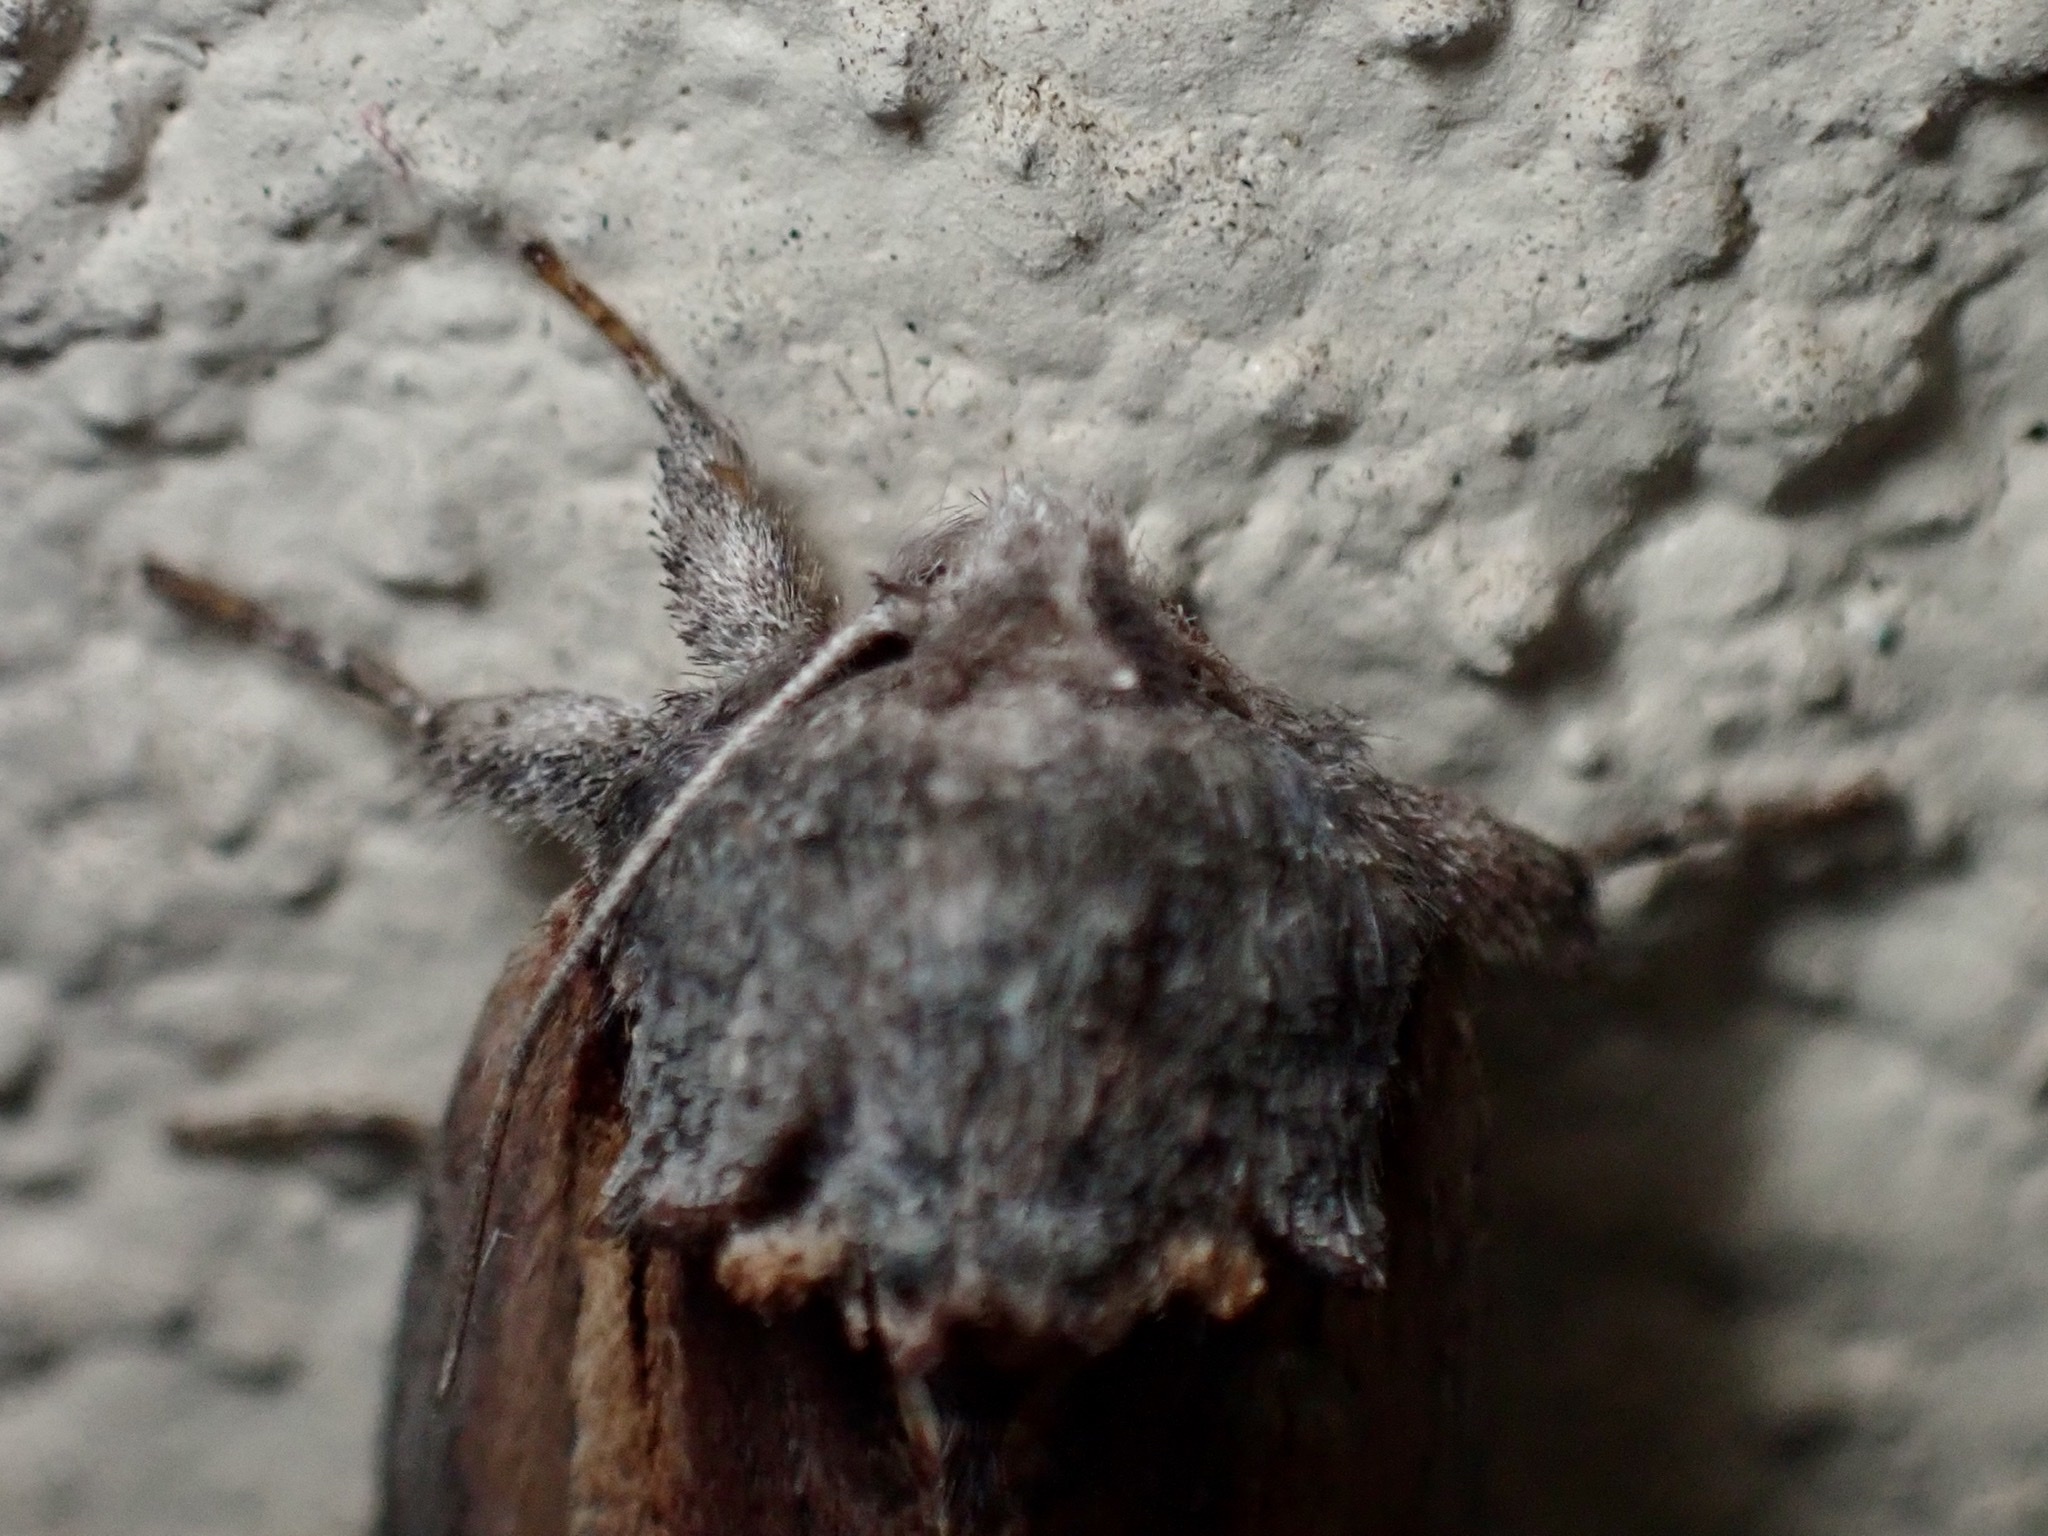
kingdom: Animalia
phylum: Arthropoda
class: Insecta
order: Lepidoptera
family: Notodontidae
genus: Schizura
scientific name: Schizura
